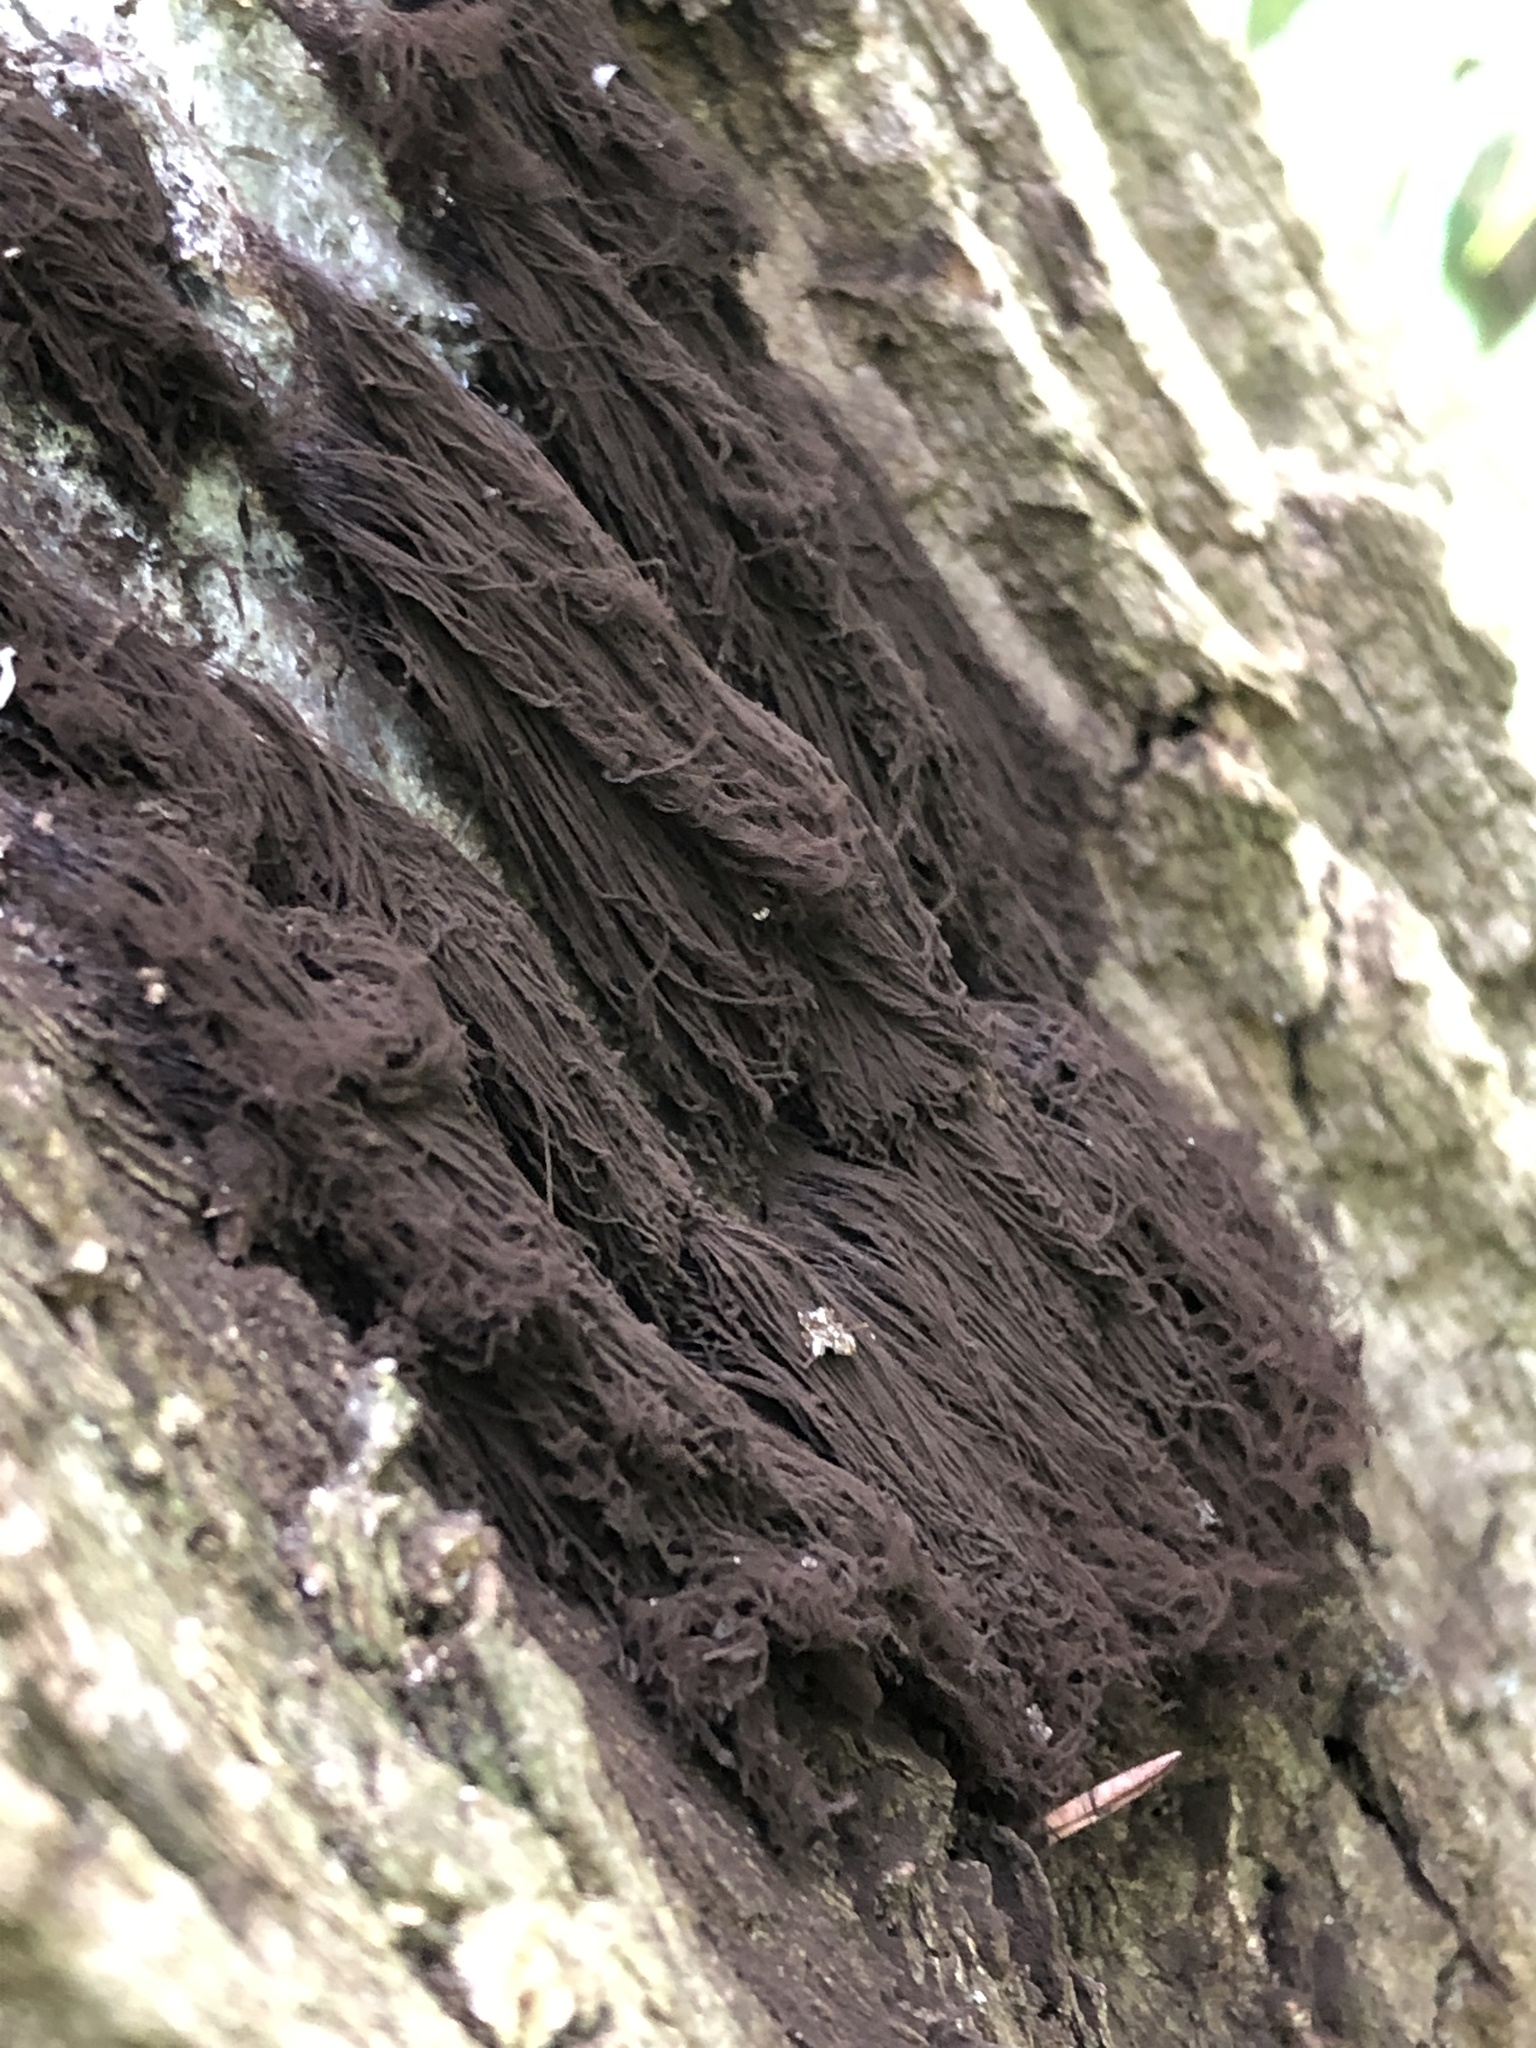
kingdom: Protozoa
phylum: Mycetozoa
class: Myxomycetes
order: Stemonitidales
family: Stemonitidaceae
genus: Stemonitis
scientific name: Stemonitis splendens
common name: Chocolate tube slime
